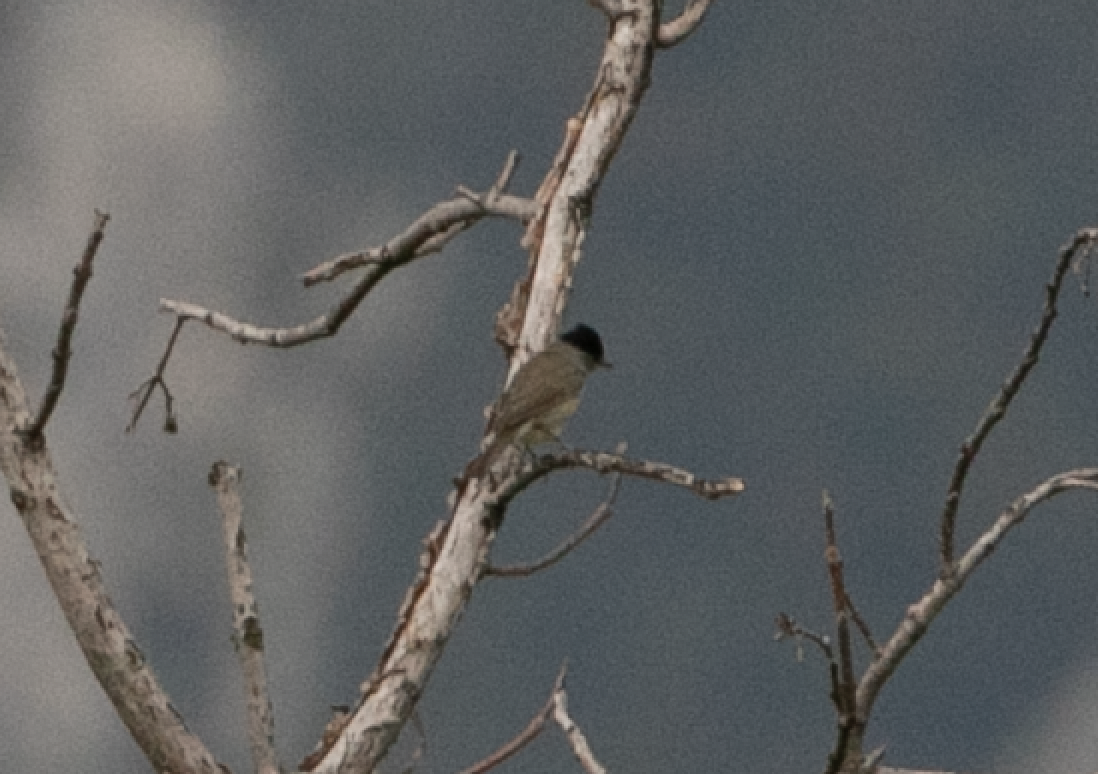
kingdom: Animalia
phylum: Chordata
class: Aves
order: Passeriformes
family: Sylviidae
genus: Sylvia
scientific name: Sylvia atricapilla
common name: Eurasian blackcap
